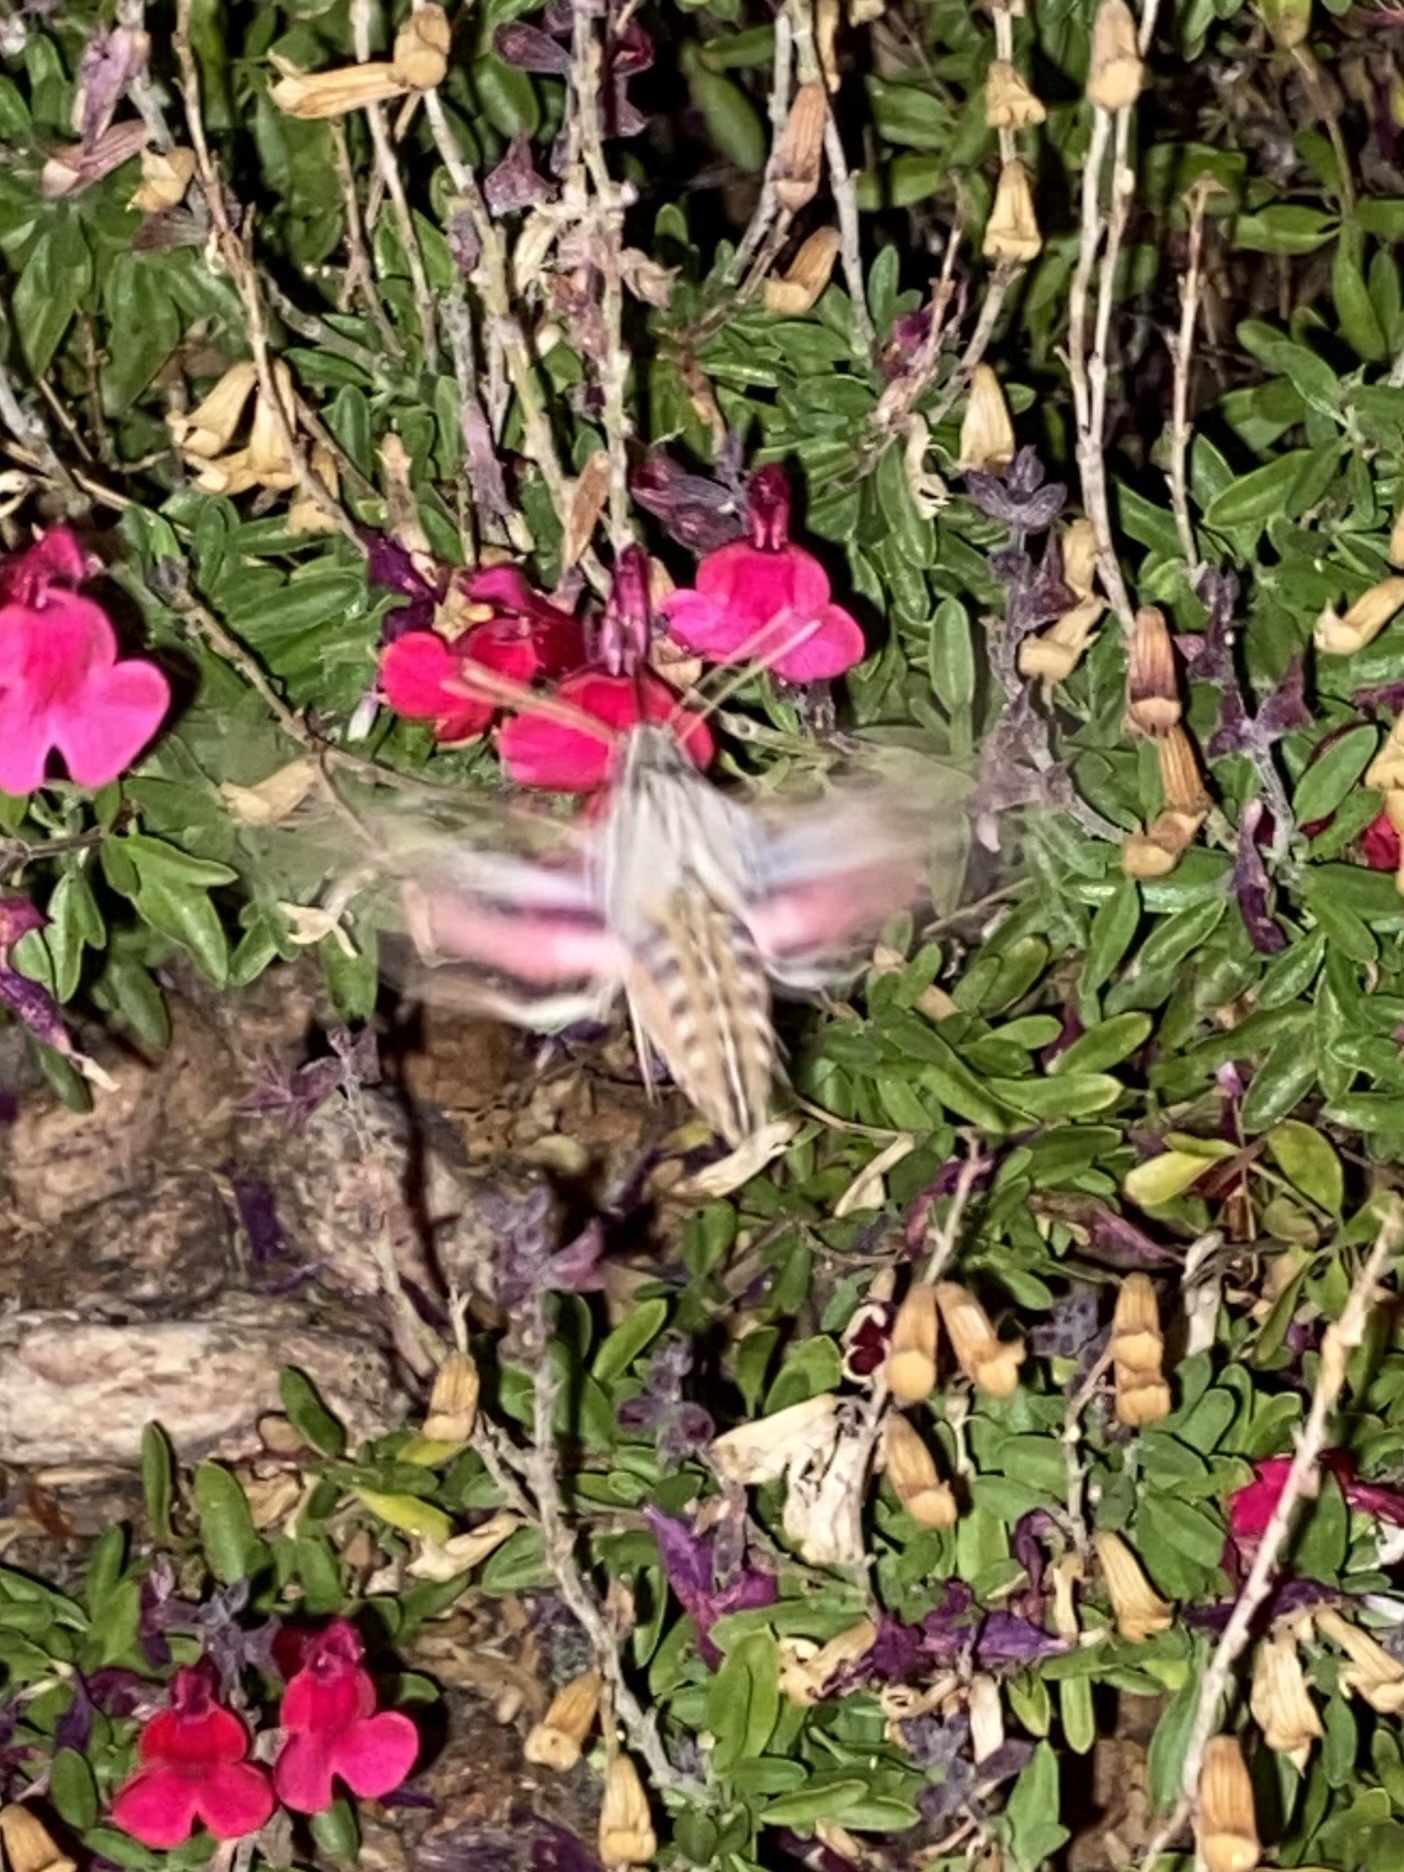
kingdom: Animalia
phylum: Arthropoda
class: Insecta
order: Lepidoptera
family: Sphingidae
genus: Hyles
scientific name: Hyles lineata
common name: White-lined sphinx
